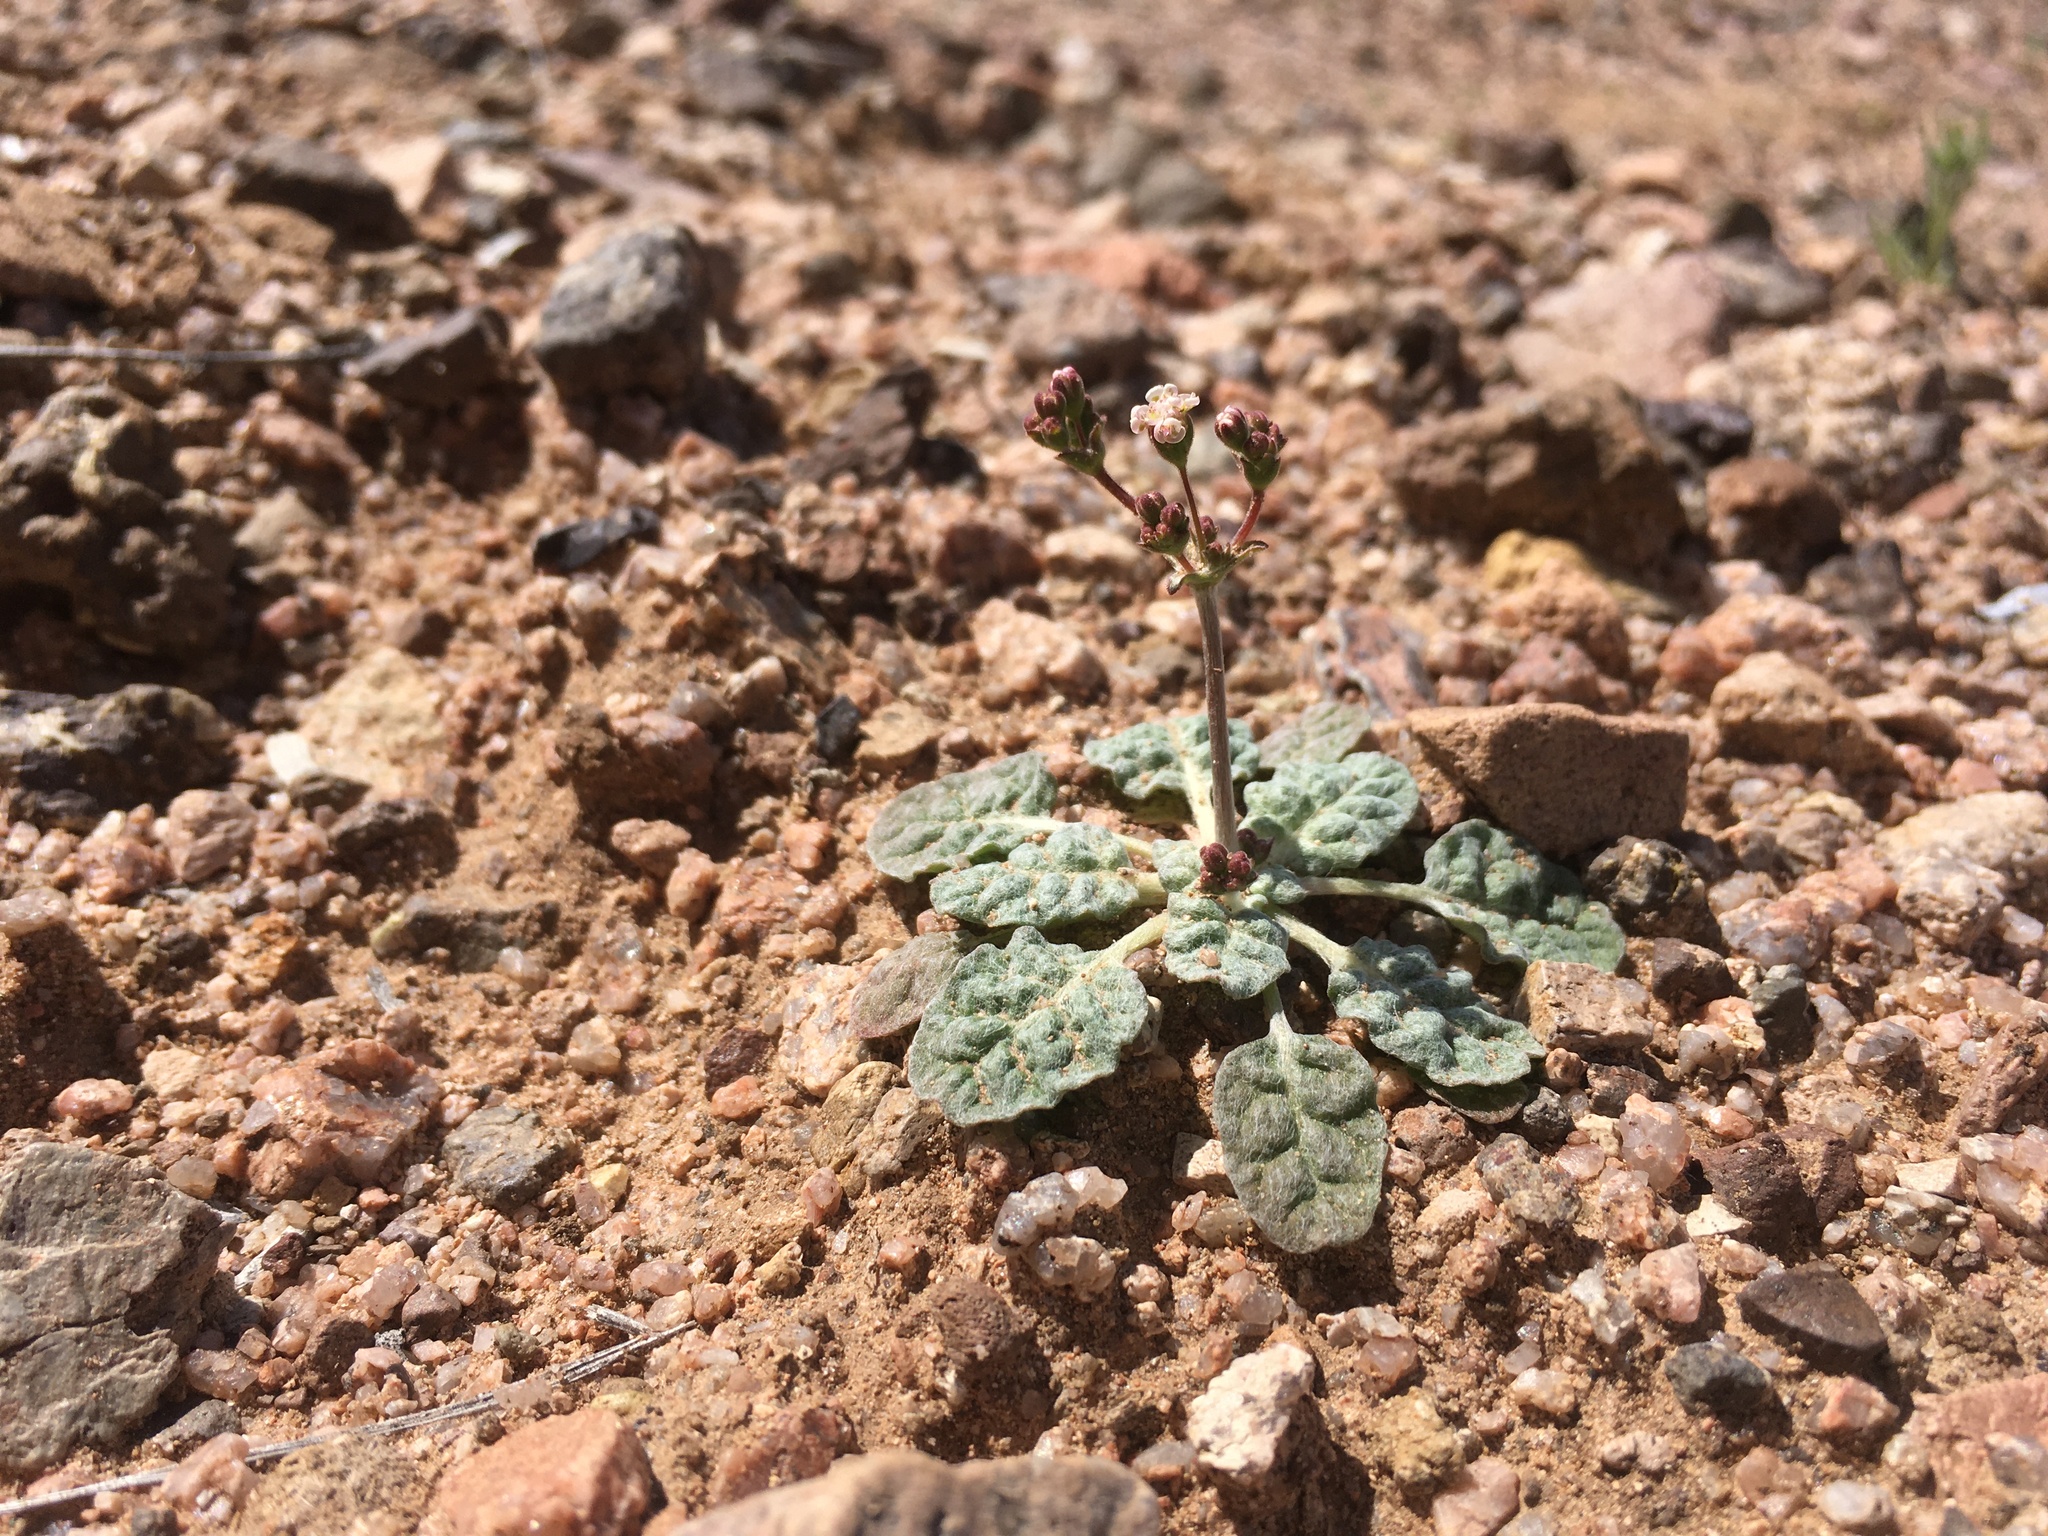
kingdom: Plantae
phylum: Tracheophyta
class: Magnoliopsida
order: Caryophyllales
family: Polygonaceae
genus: Eriogonum
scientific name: Eriogonum thurberi
